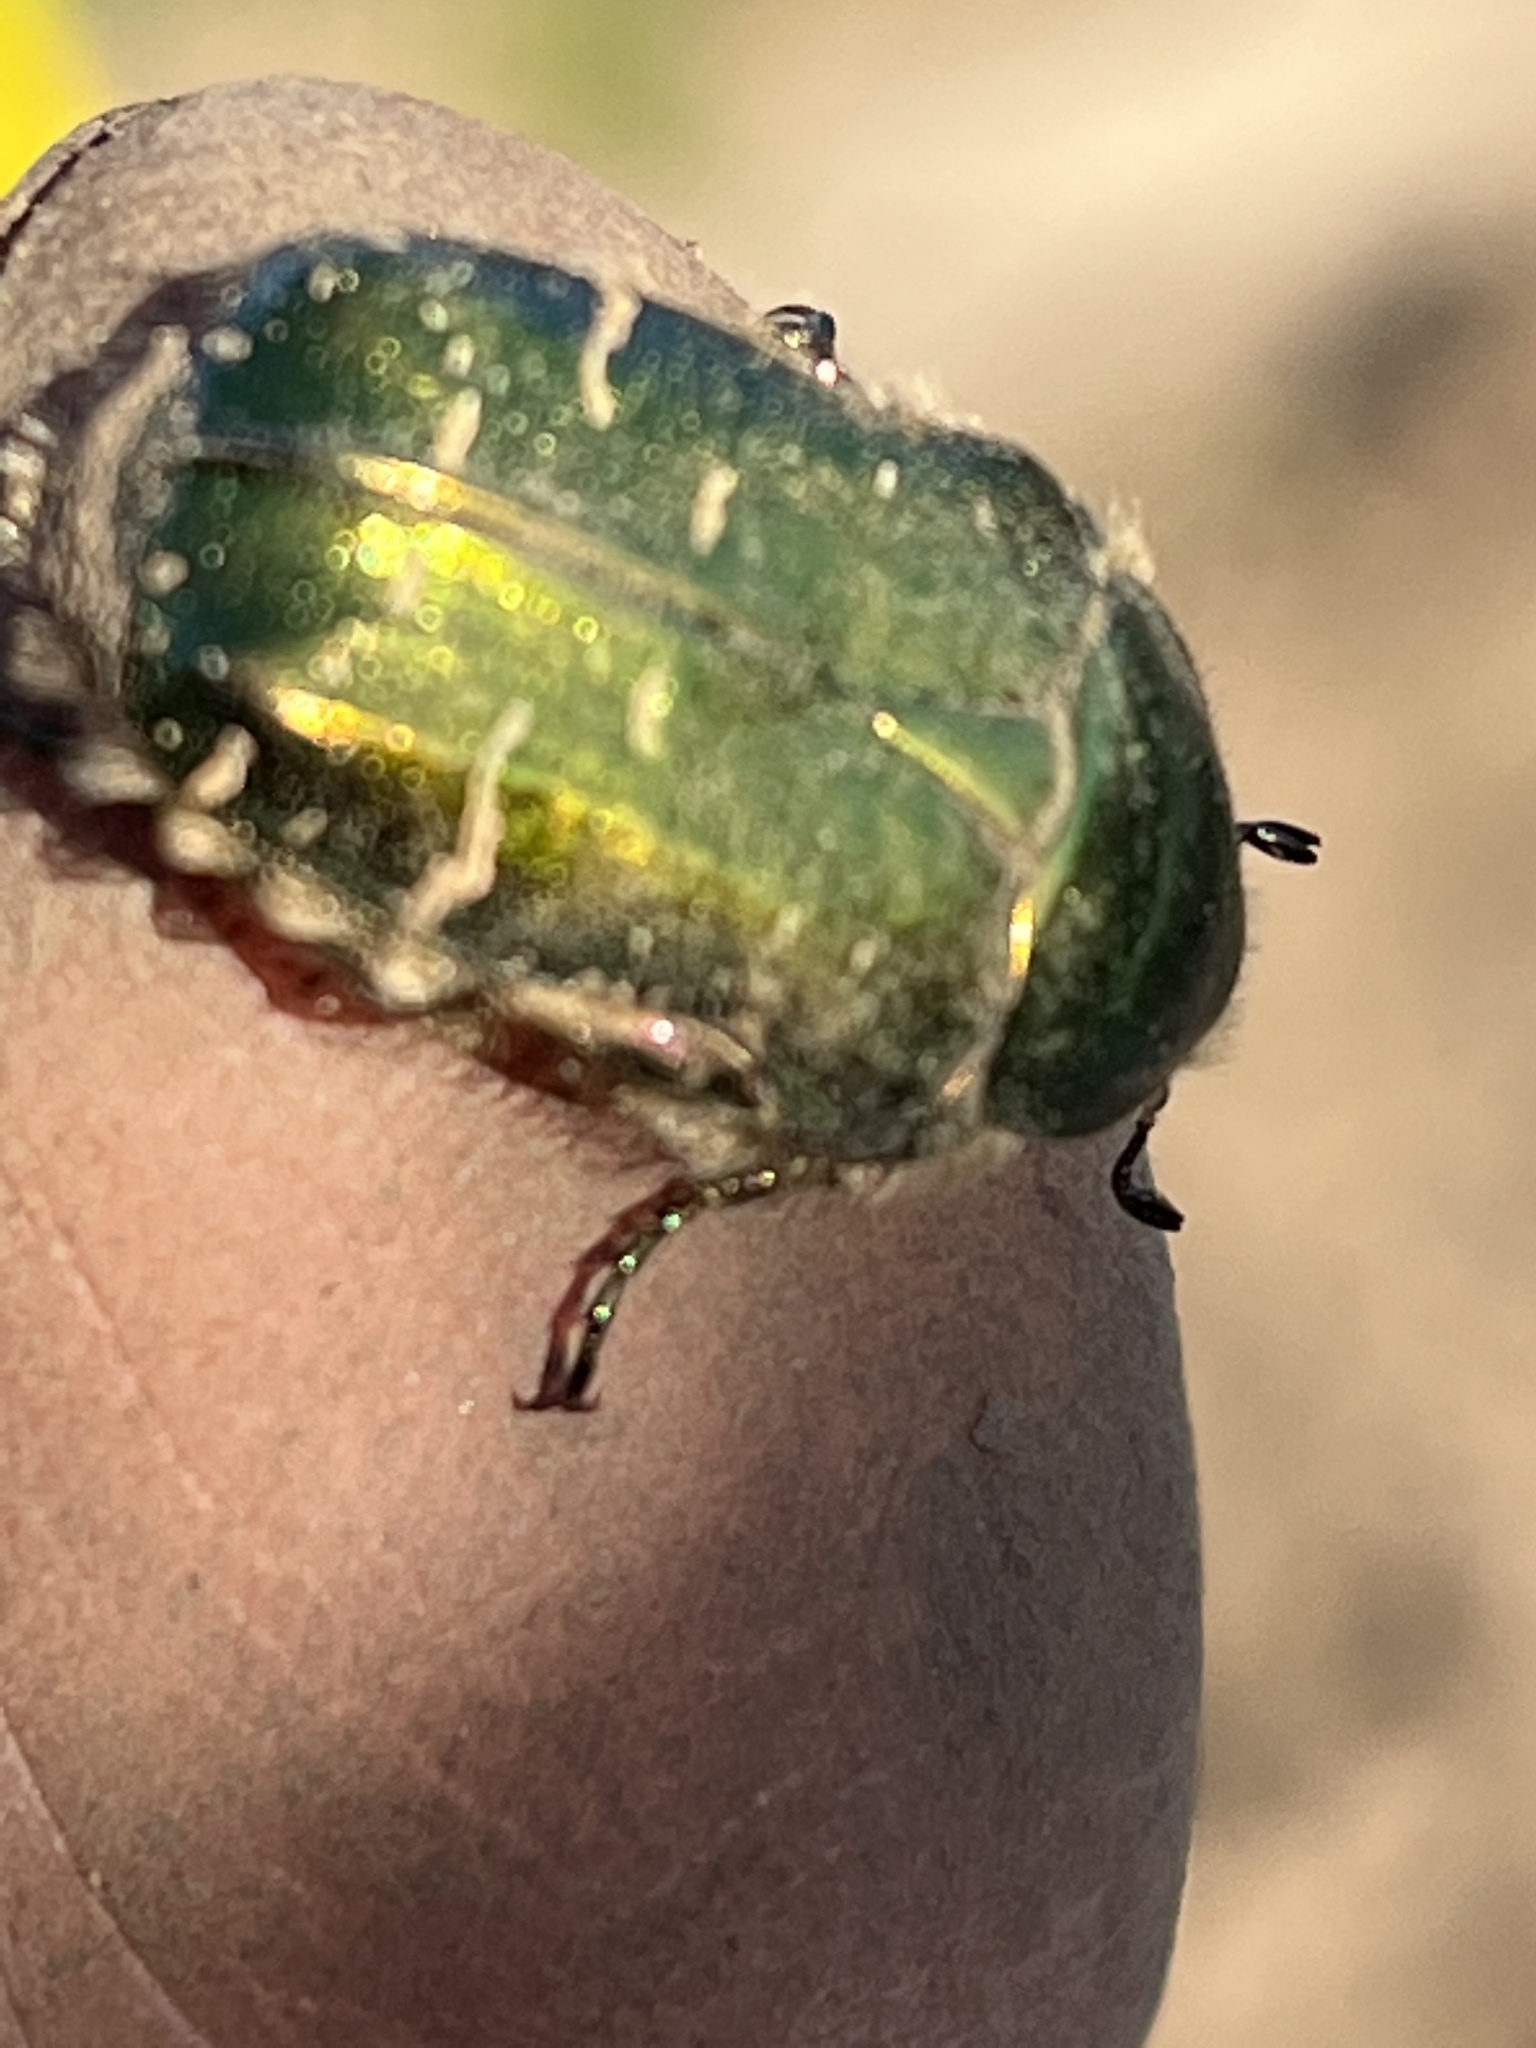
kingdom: Animalia
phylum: Arthropoda
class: Insecta
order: Coleoptera
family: Scarabaeidae
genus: Cetonia
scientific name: Cetonia aurata
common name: Rose chafer
